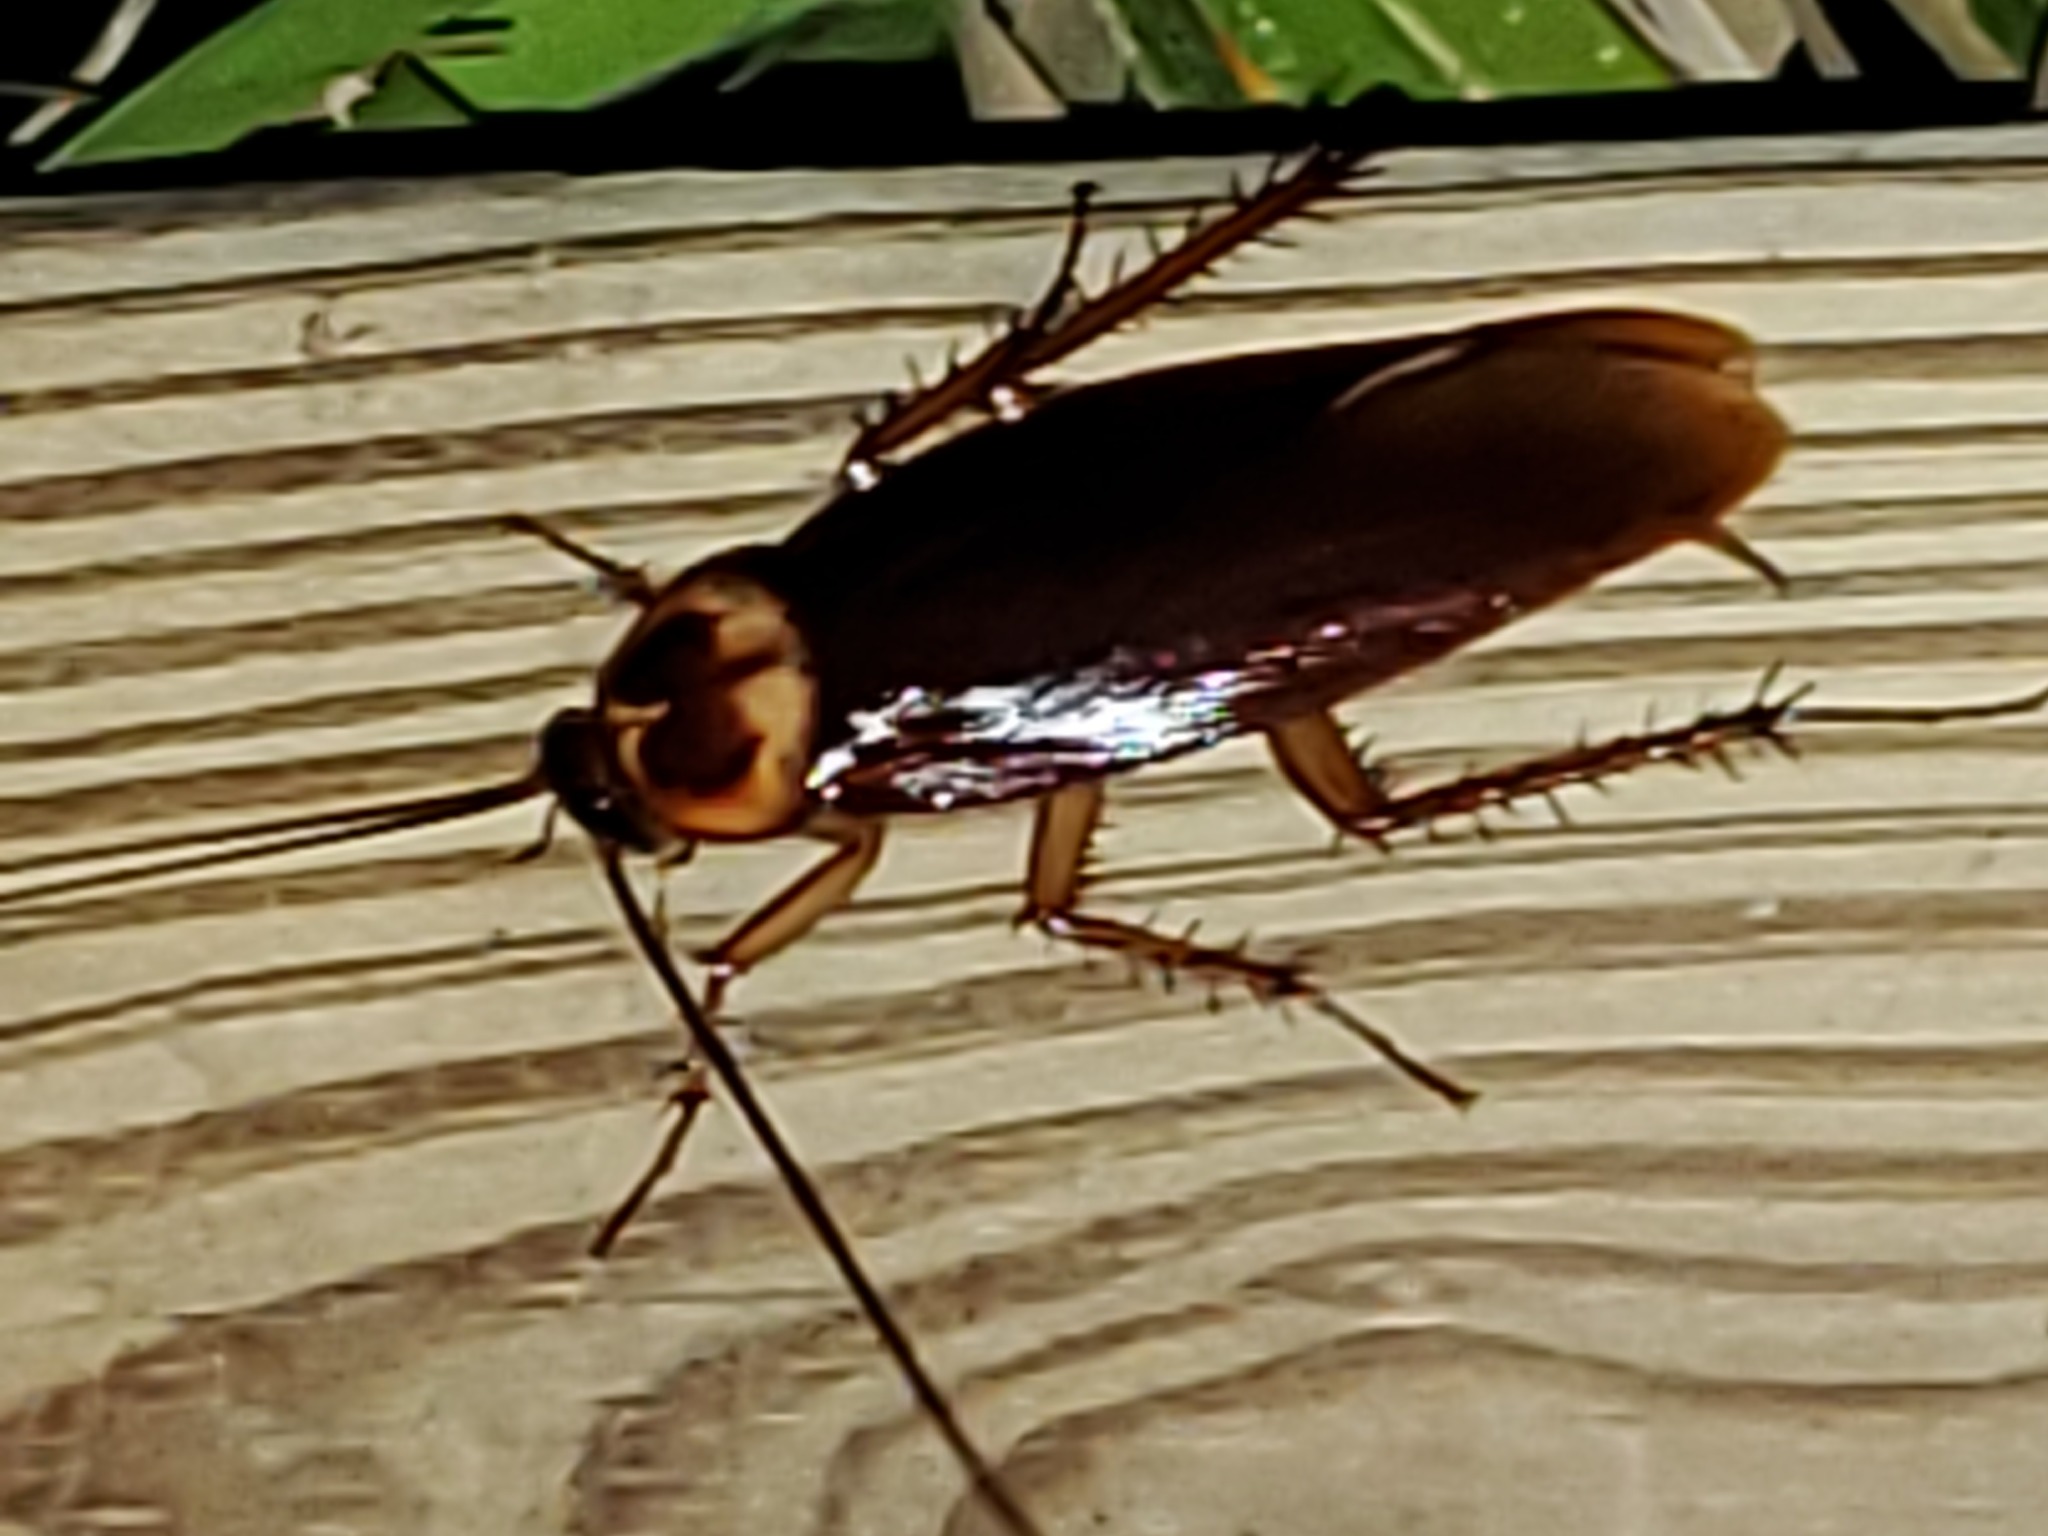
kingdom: Animalia
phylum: Arthropoda
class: Insecta
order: Blattodea
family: Blattidae
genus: Periplaneta
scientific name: Periplaneta americana
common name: American cockroach
